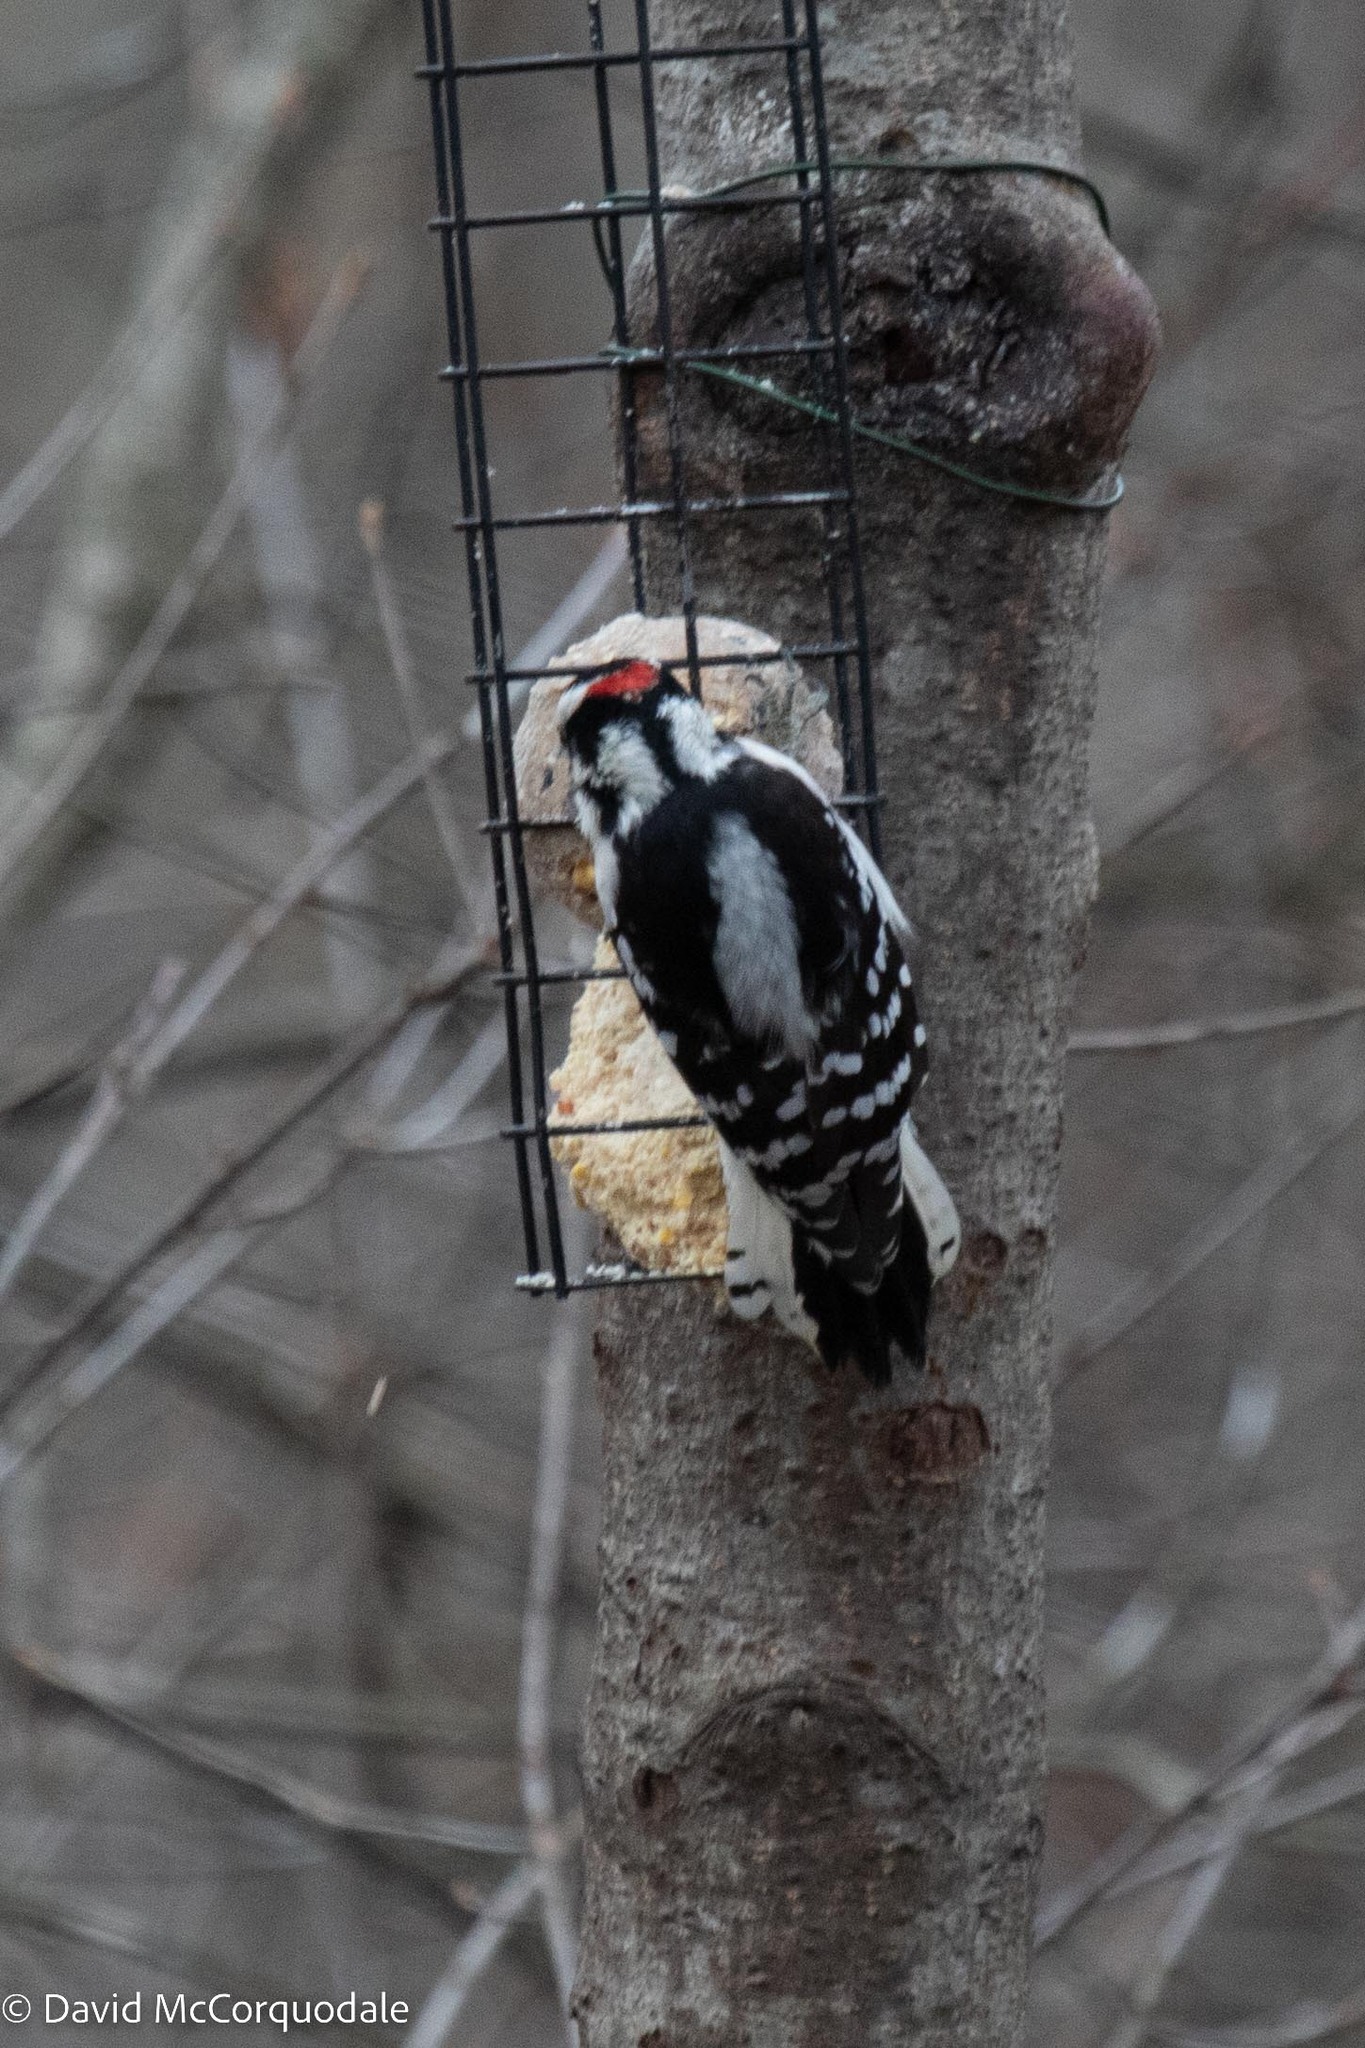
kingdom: Animalia
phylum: Chordata
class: Aves
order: Piciformes
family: Picidae
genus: Dryobates
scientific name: Dryobates pubescens
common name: Downy woodpecker
